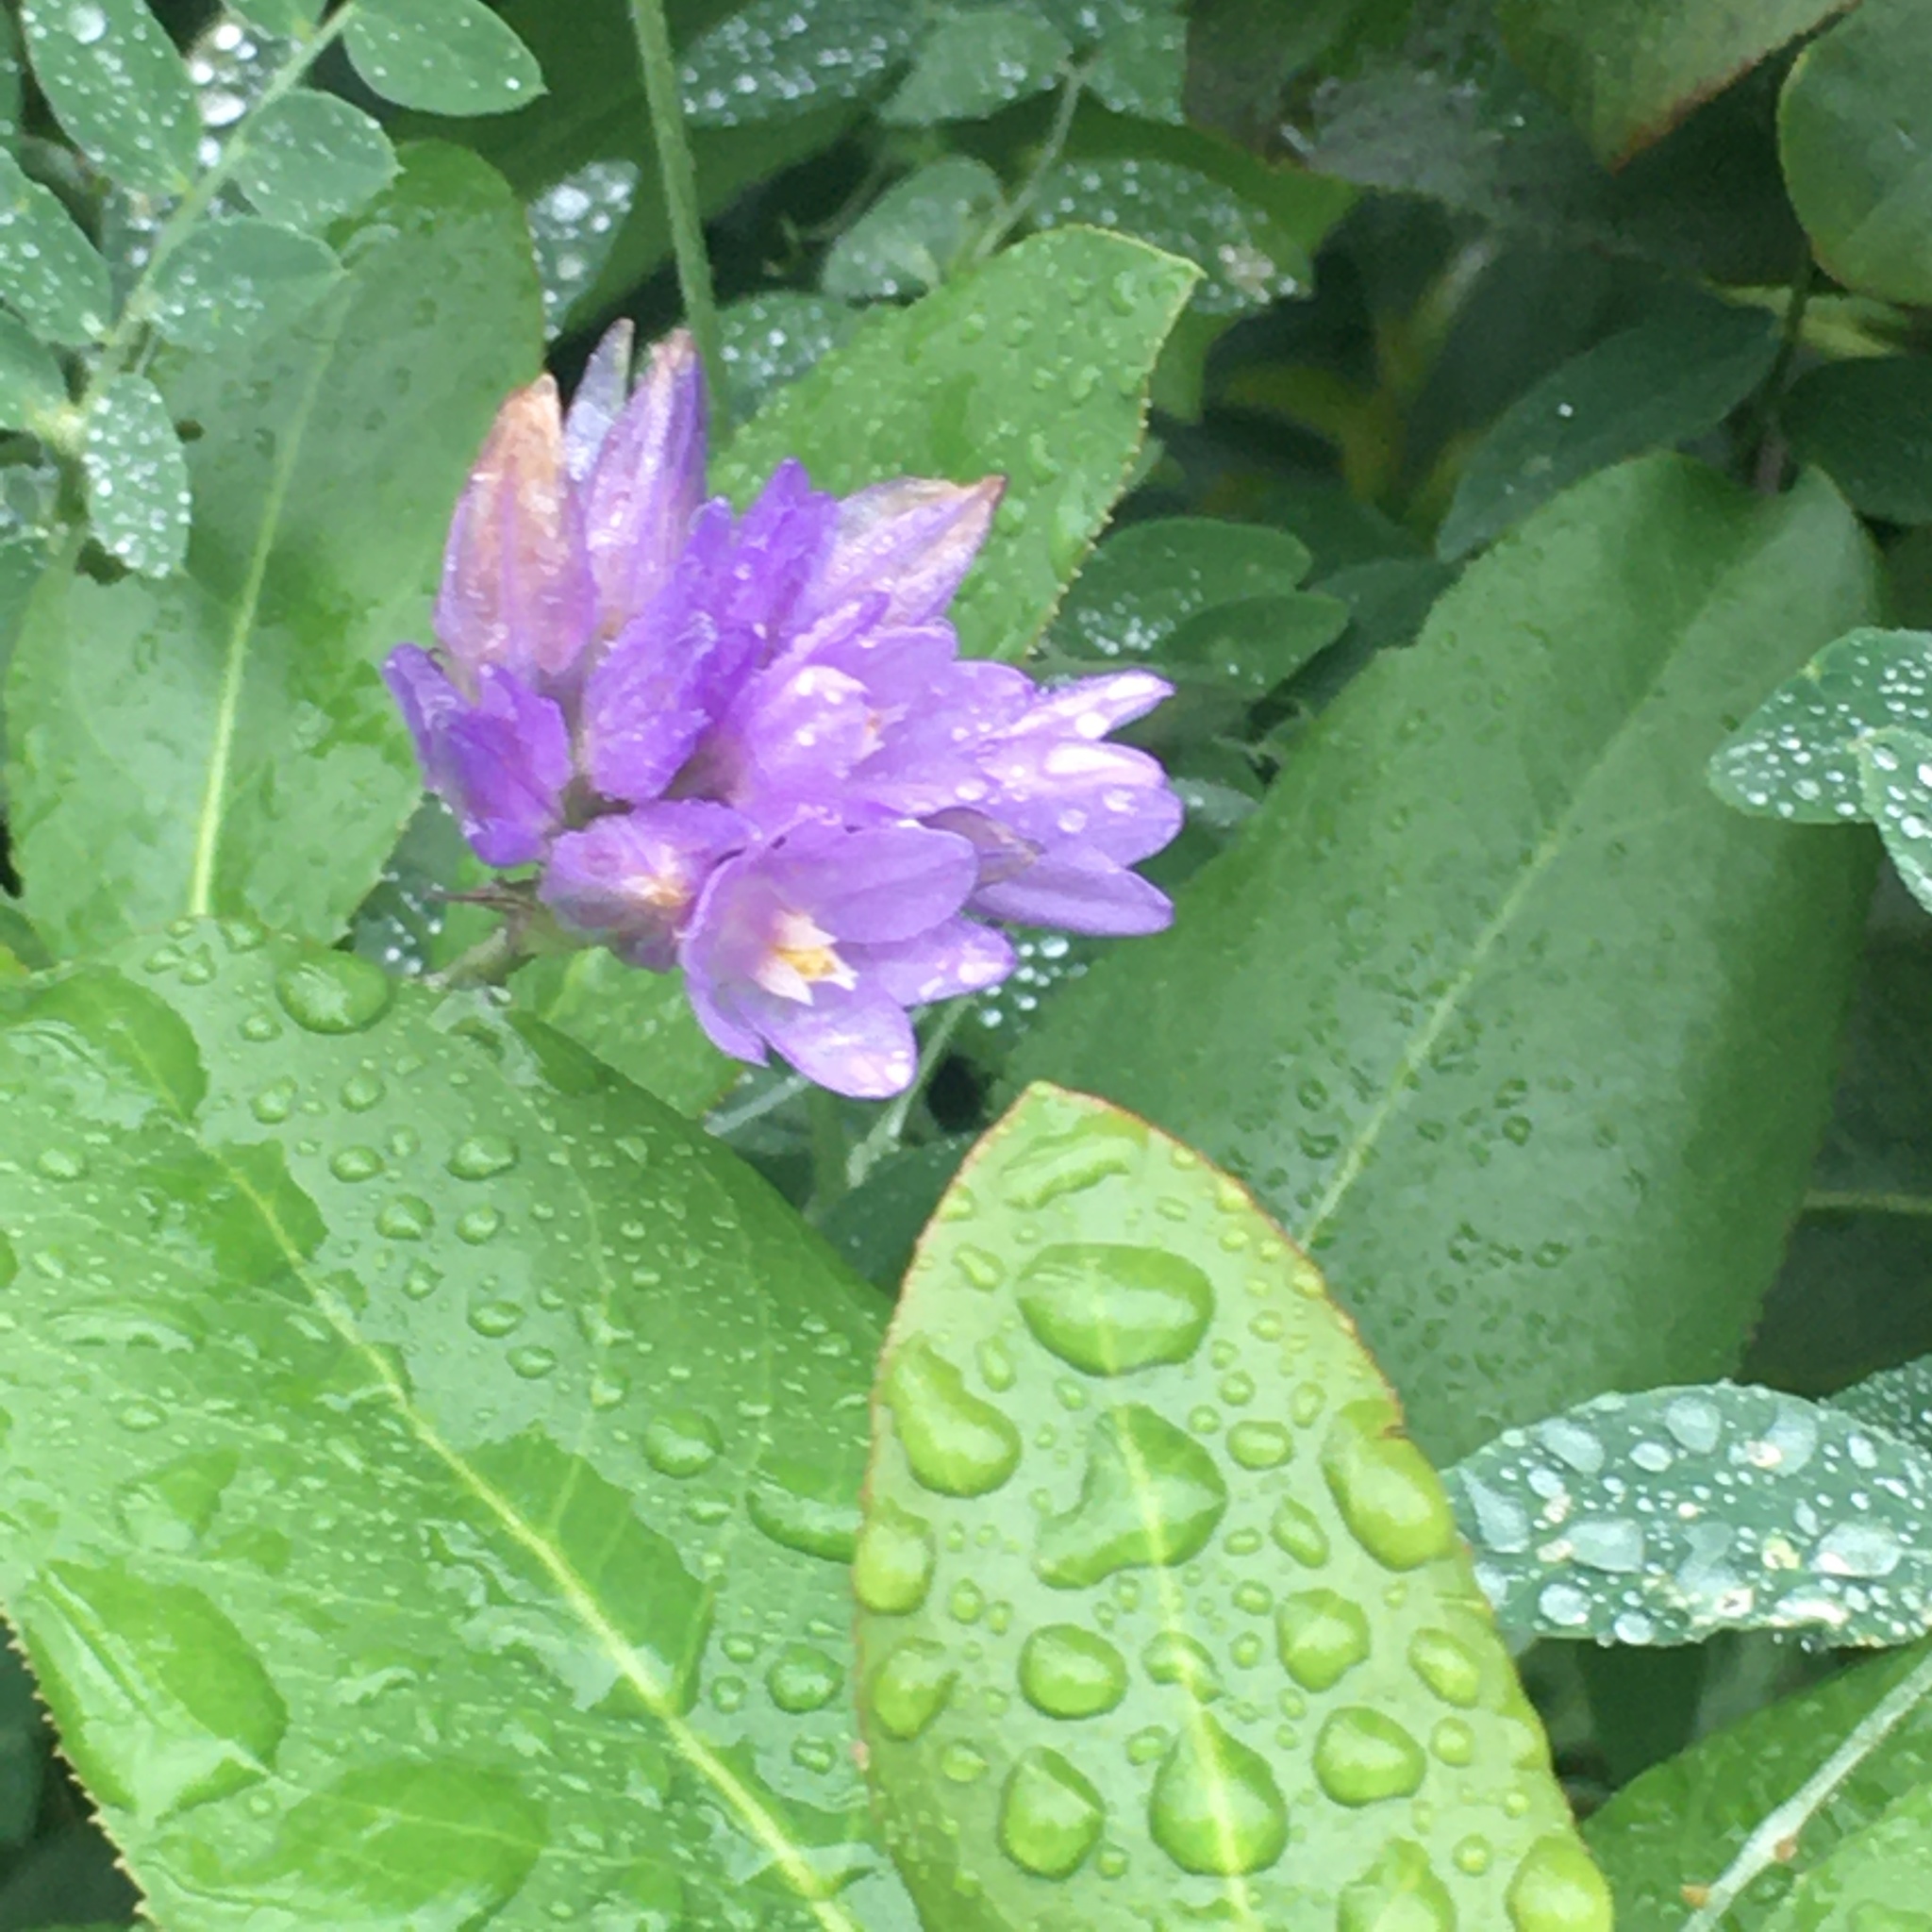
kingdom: Plantae
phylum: Tracheophyta
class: Liliopsida
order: Asparagales
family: Asparagaceae
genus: Dipterostemon
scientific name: Dipterostemon capitatus
